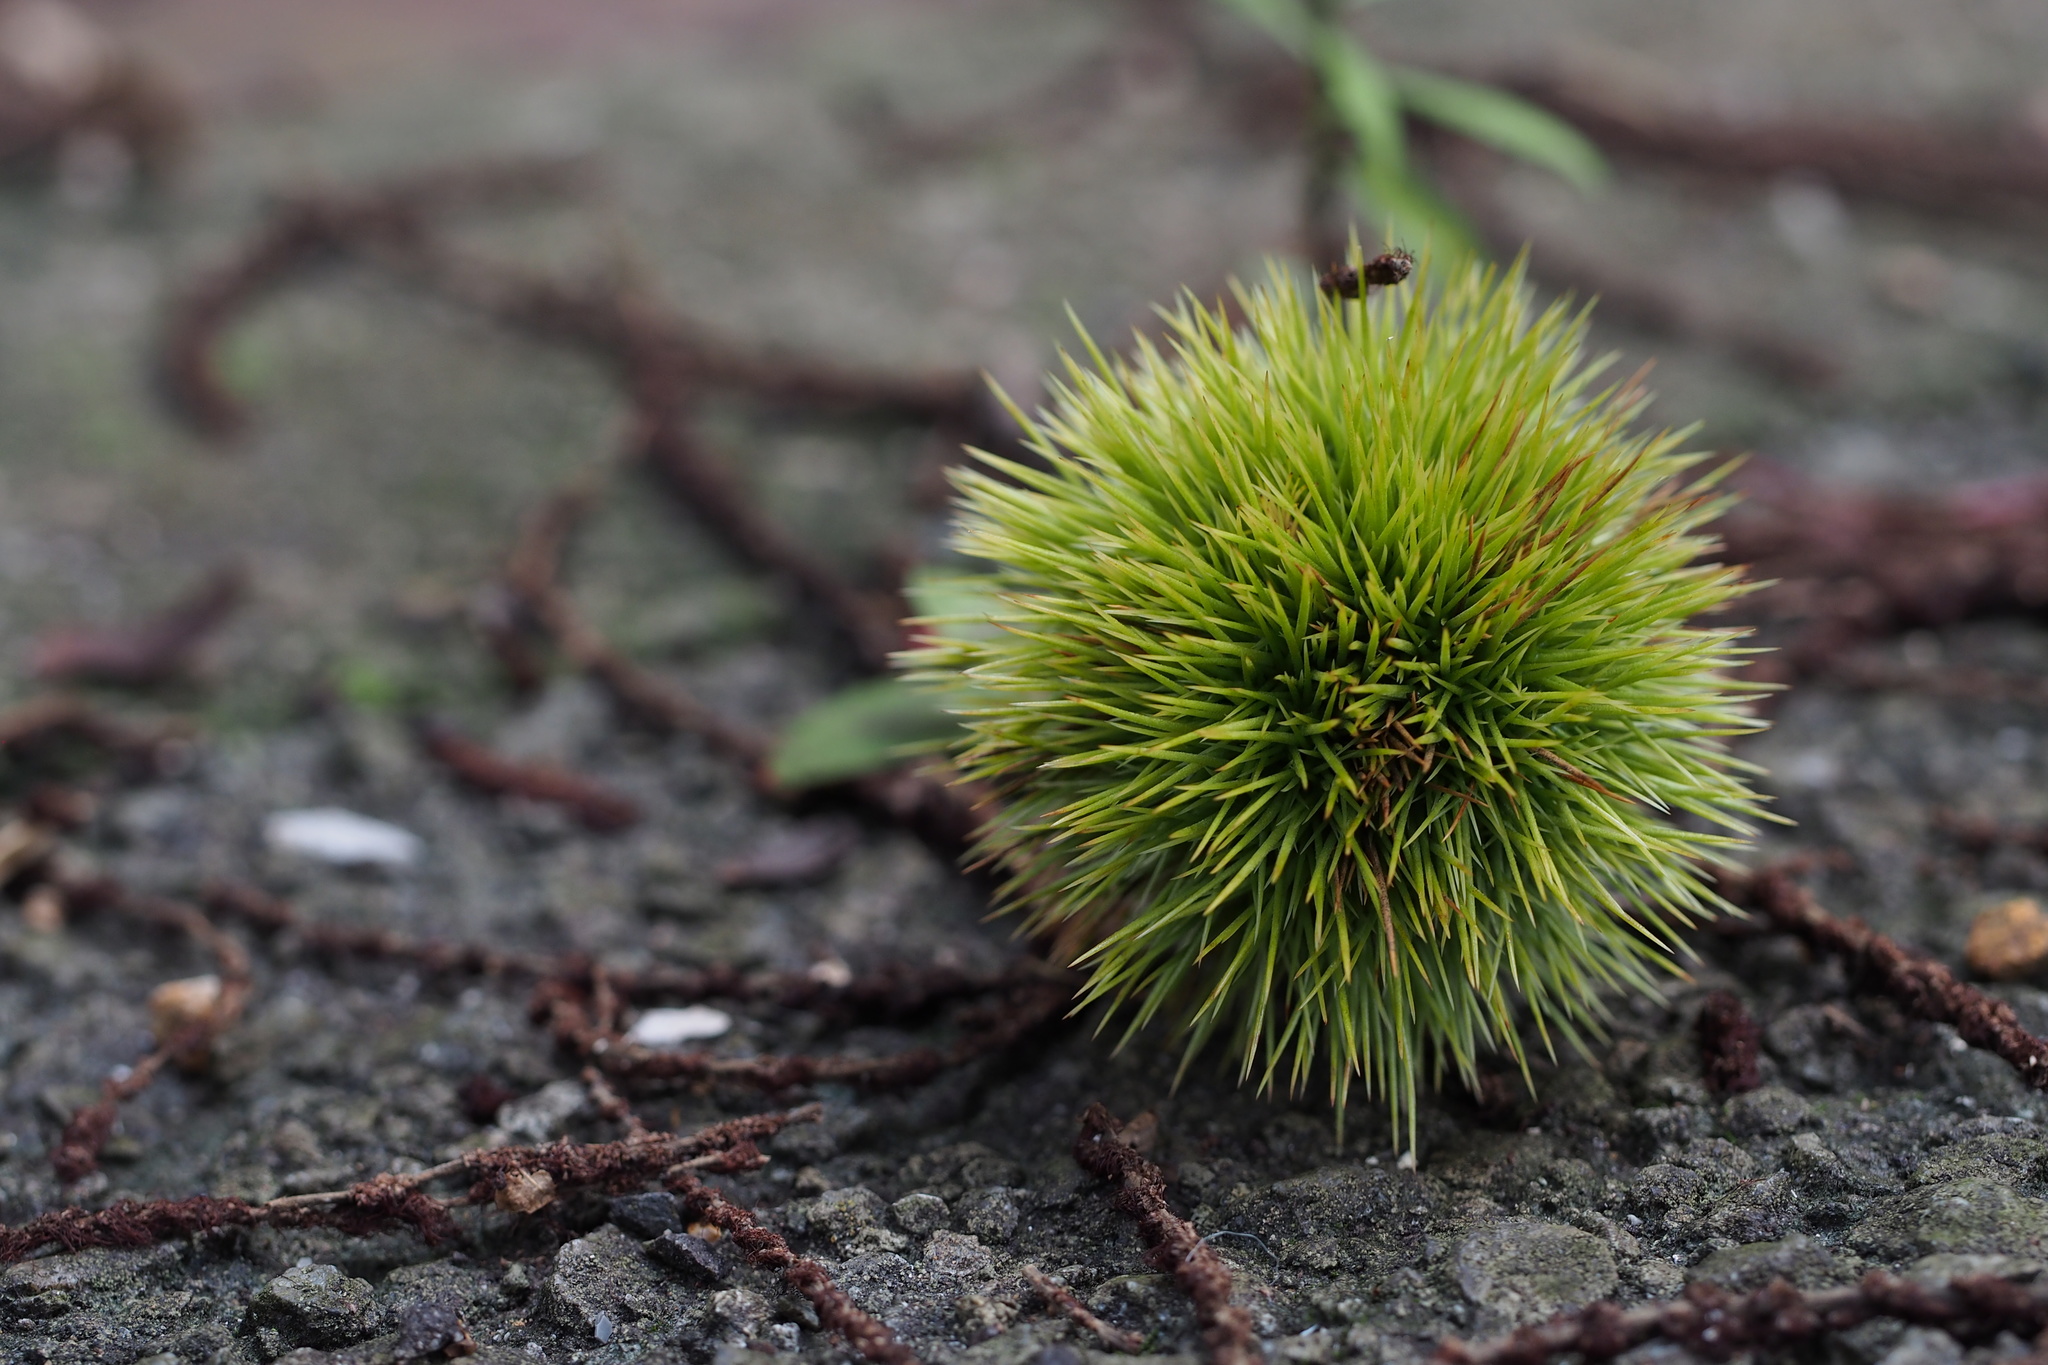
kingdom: Plantae
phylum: Tracheophyta
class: Magnoliopsida
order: Fagales
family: Fagaceae
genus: Castanea
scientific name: Castanea crenata
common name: Japanese chestnut
